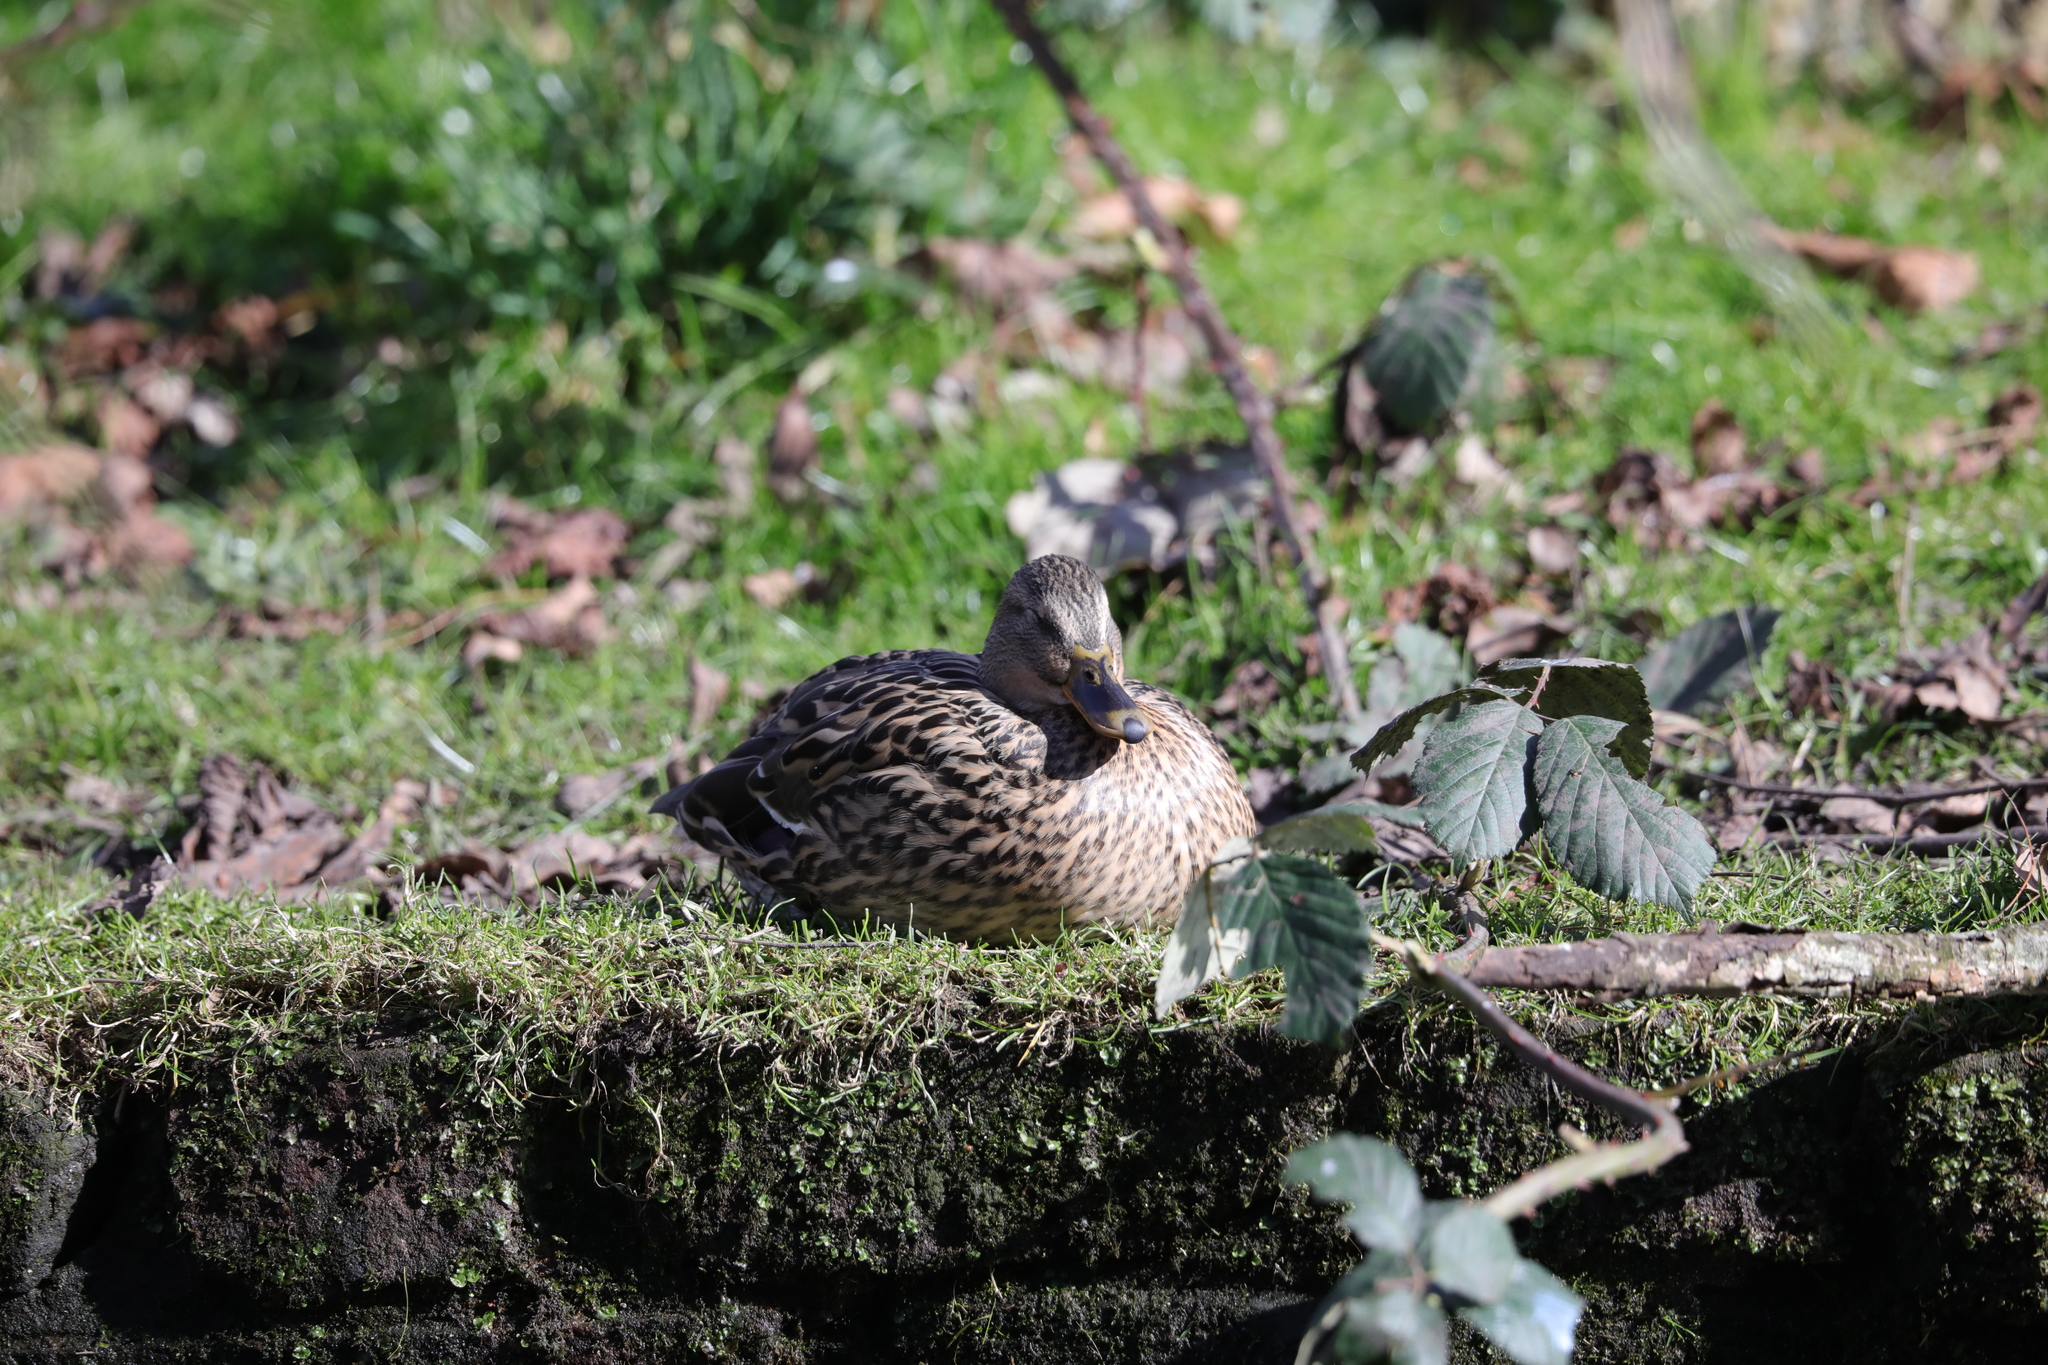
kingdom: Animalia
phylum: Chordata
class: Aves
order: Anseriformes
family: Anatidae
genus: Anas
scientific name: Anas platyrhynchos
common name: Mallard
